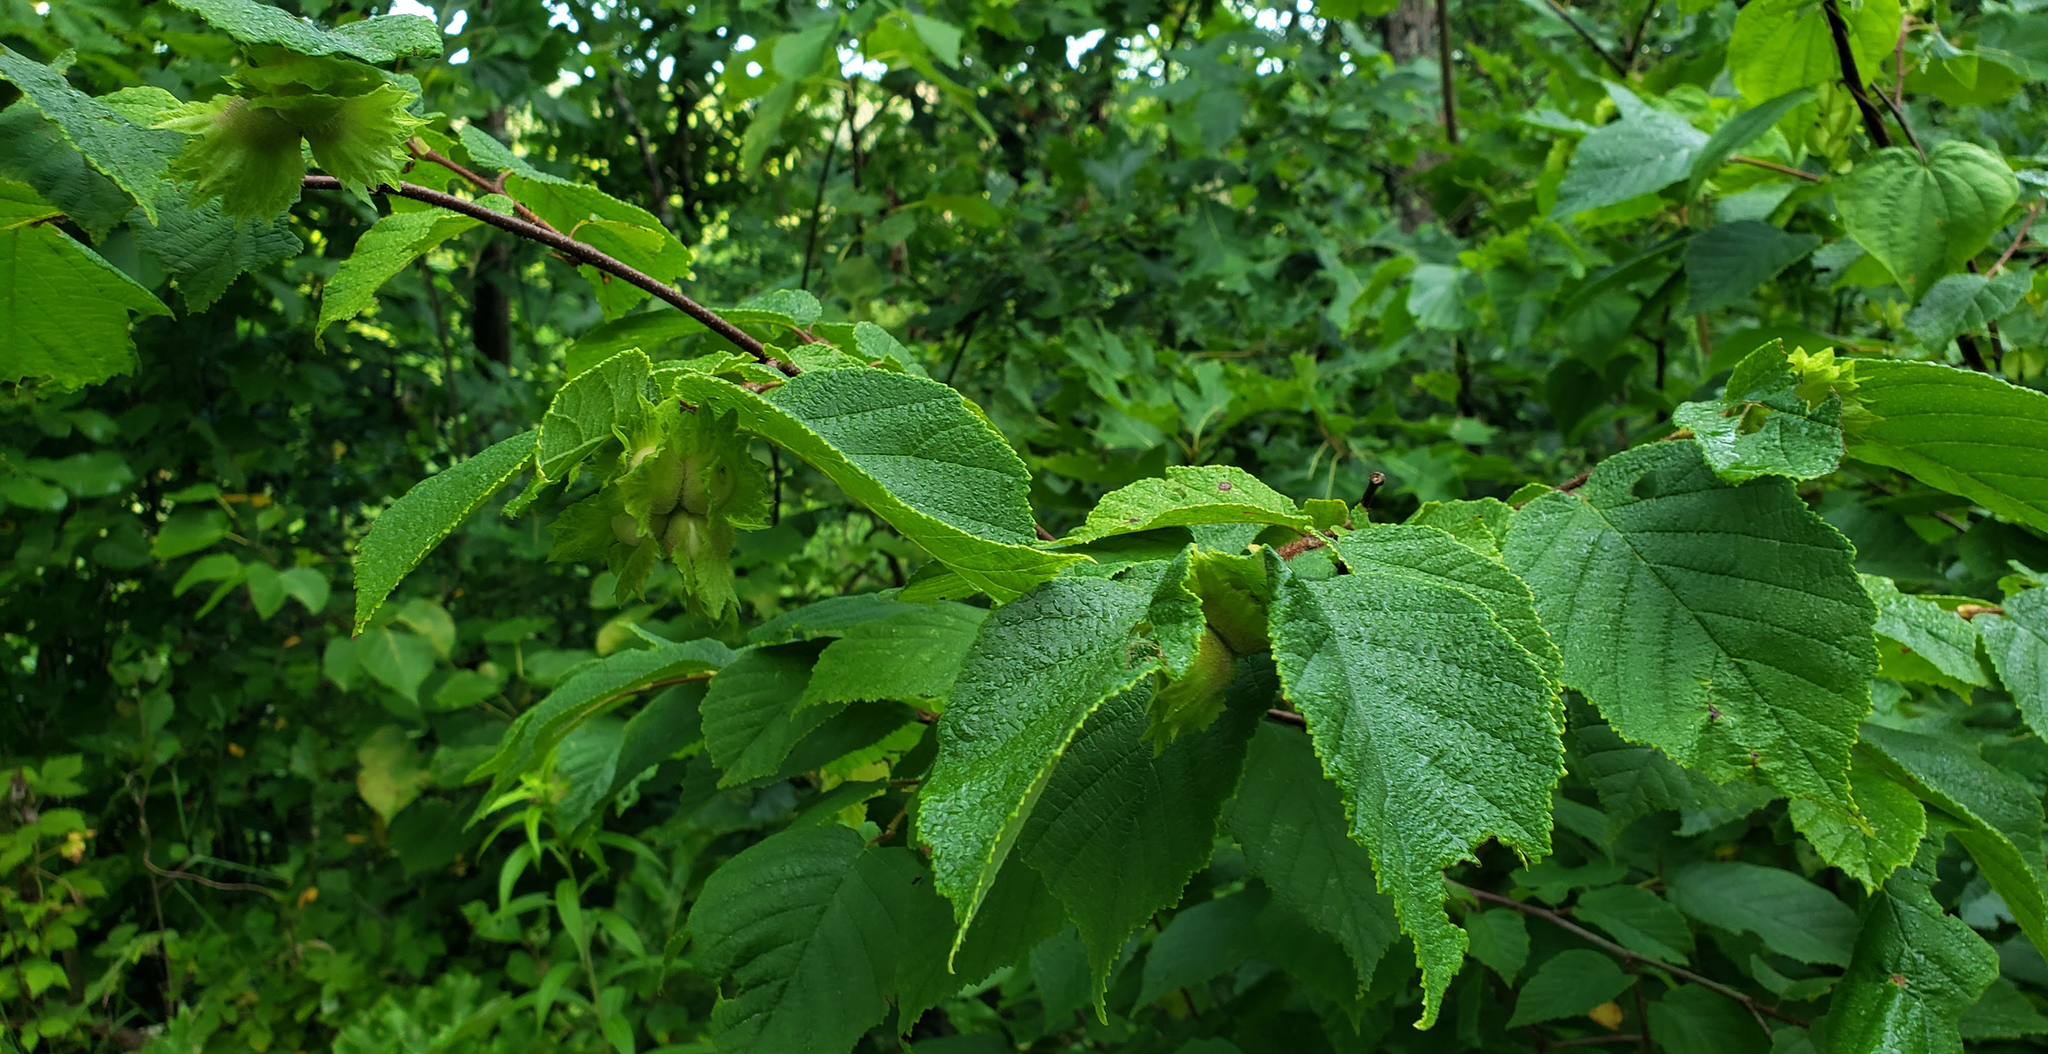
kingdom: Plantae
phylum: Tracheophyta
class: Magnoliopsida
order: Fagales
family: Betulaceae
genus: Corylus
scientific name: Corylus americana
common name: American hazel
